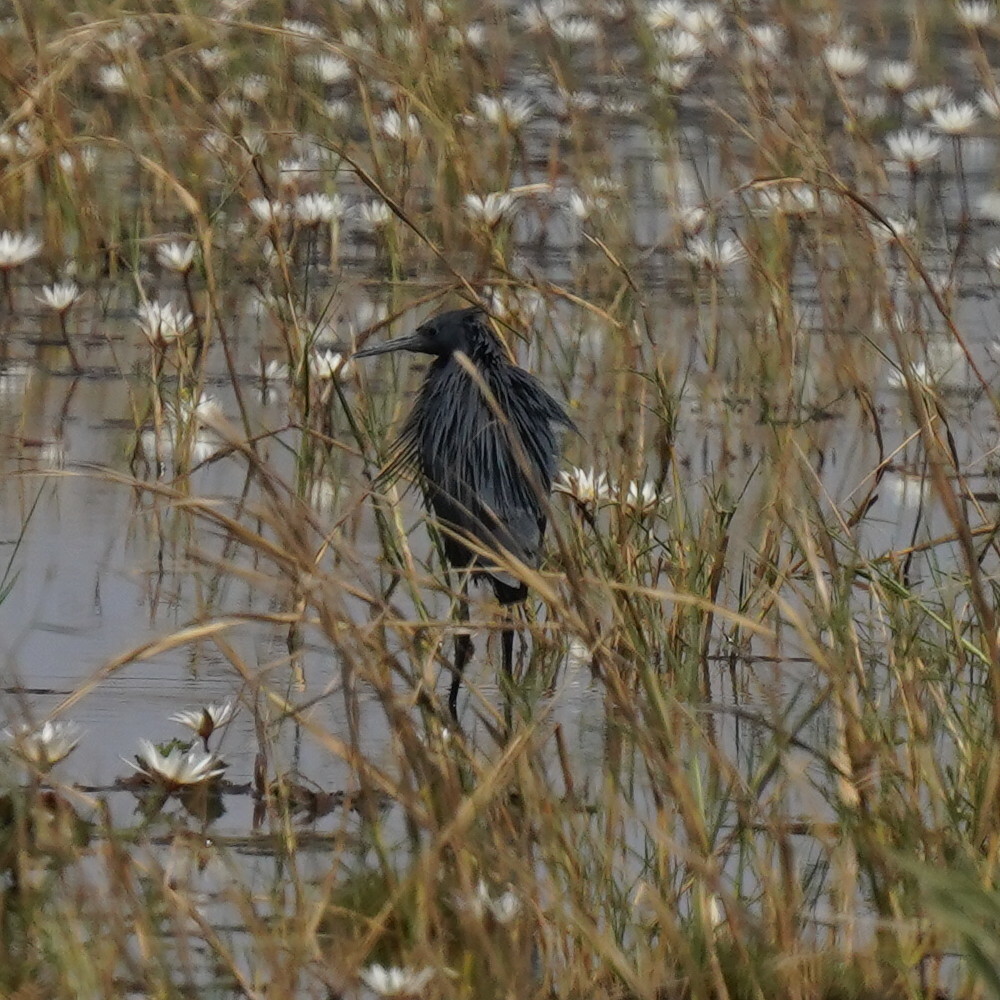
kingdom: Animalia
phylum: Chordata
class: Aves
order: Pelecaniformes
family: Ardeidae
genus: Egretta
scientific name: Egretta ardesiaca
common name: Black heron
